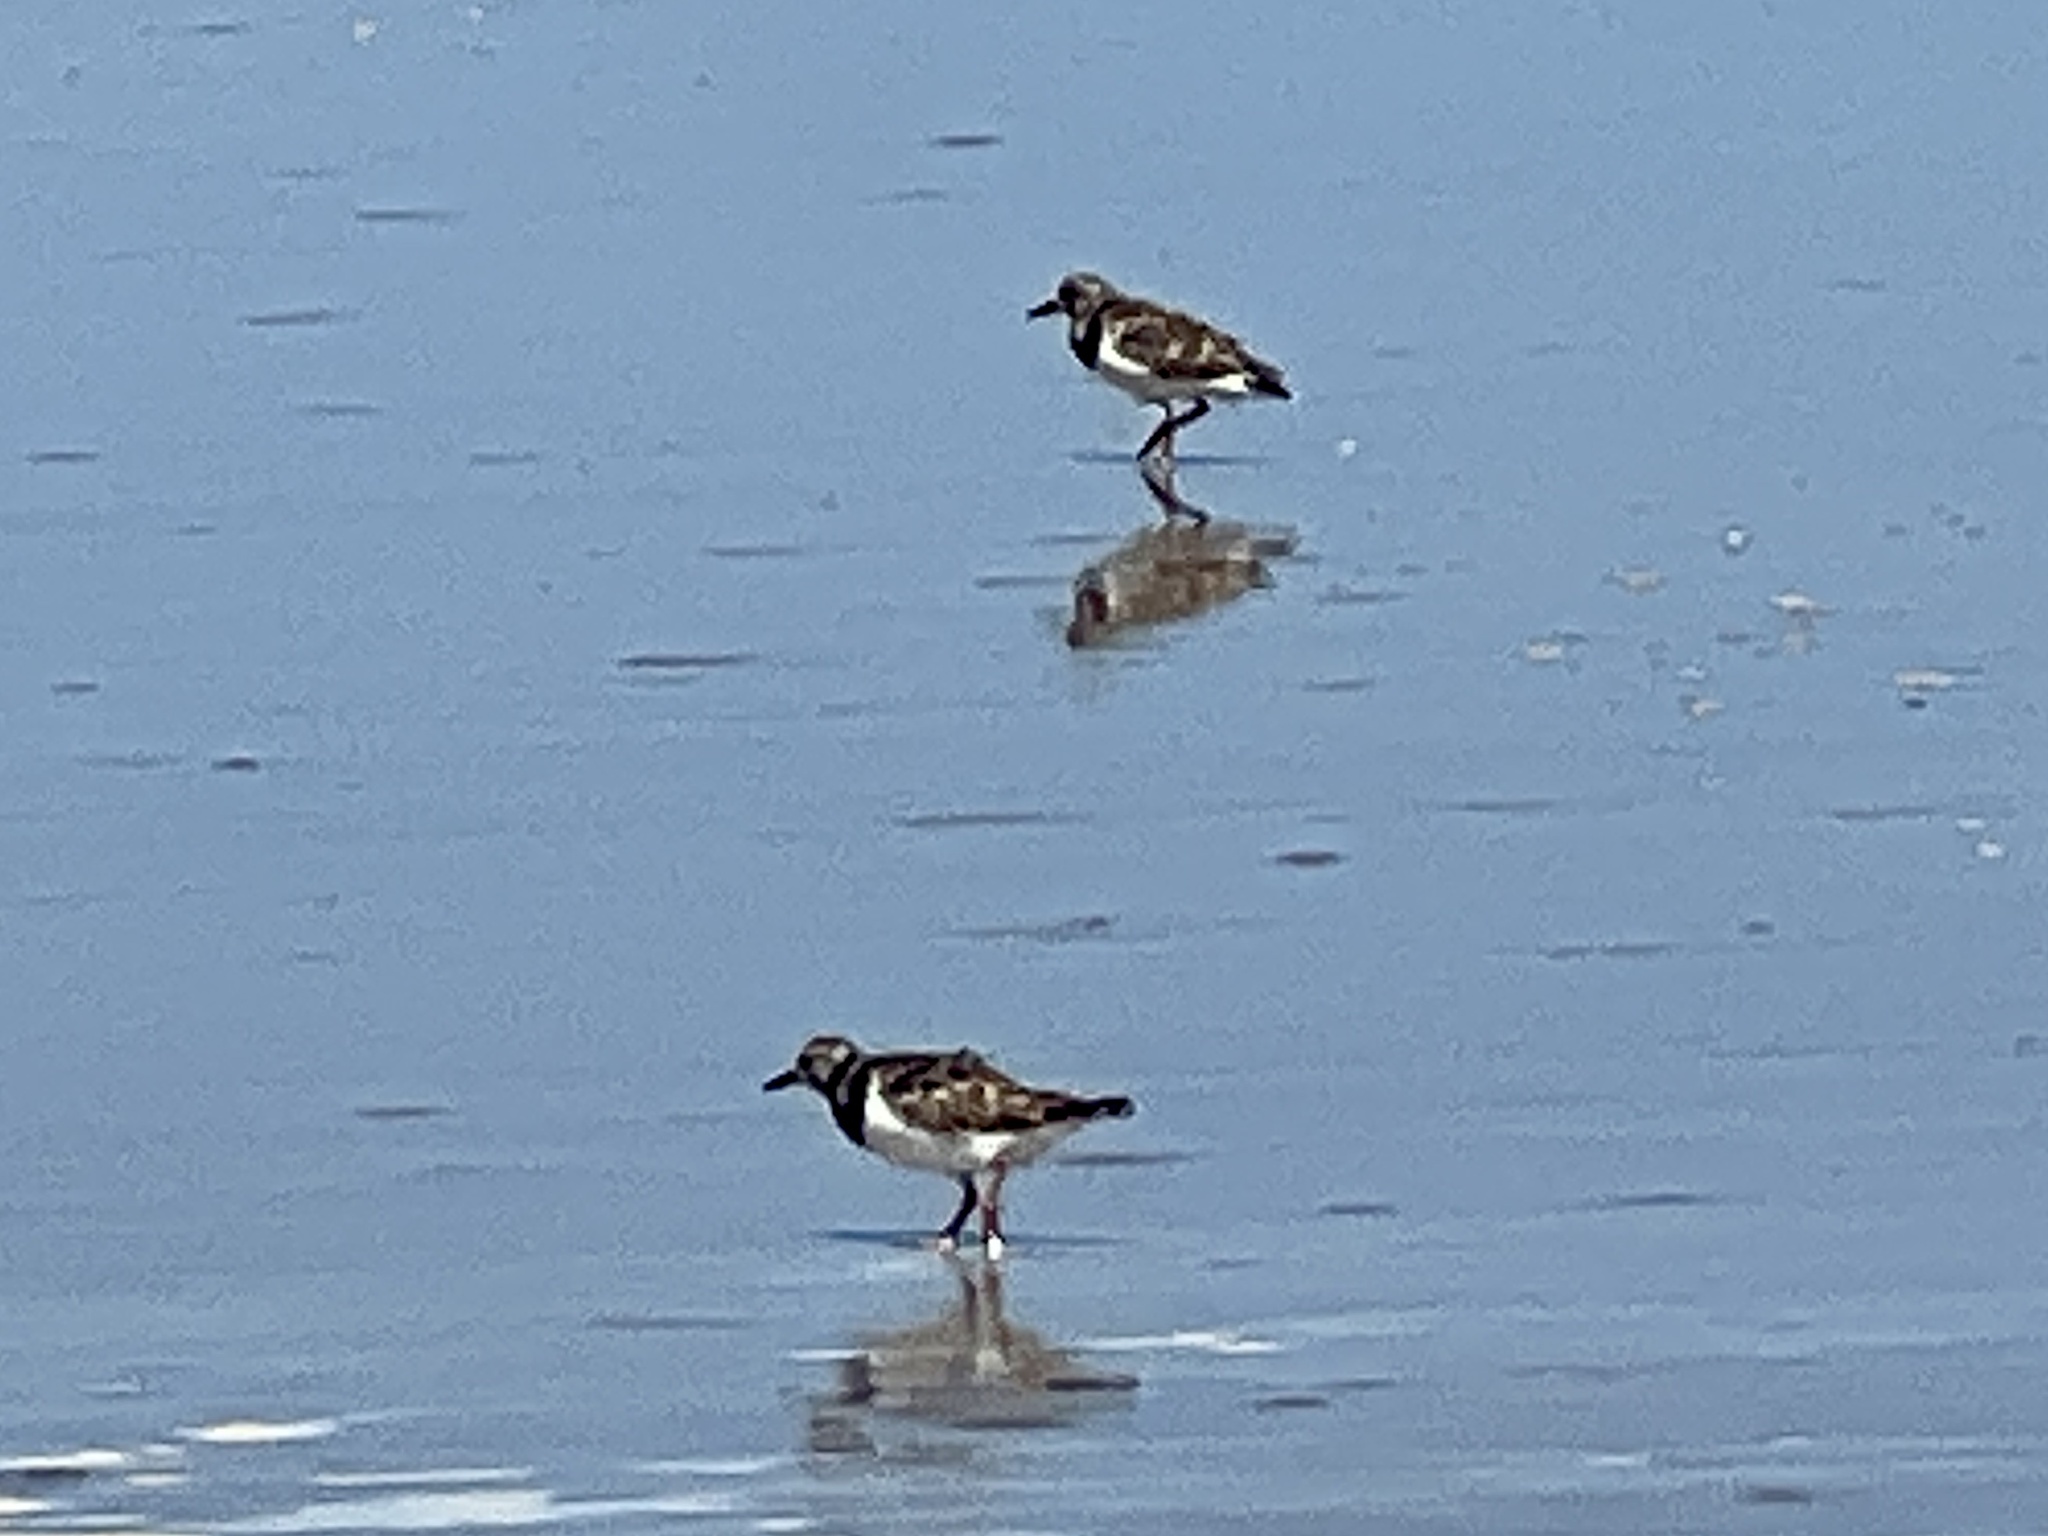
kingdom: Animalia
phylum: Chordata
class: Aves
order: Charadriiformes
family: Scolopacidae
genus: Arenaria
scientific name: Arenaria interpres
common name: Ruddy turnstone
